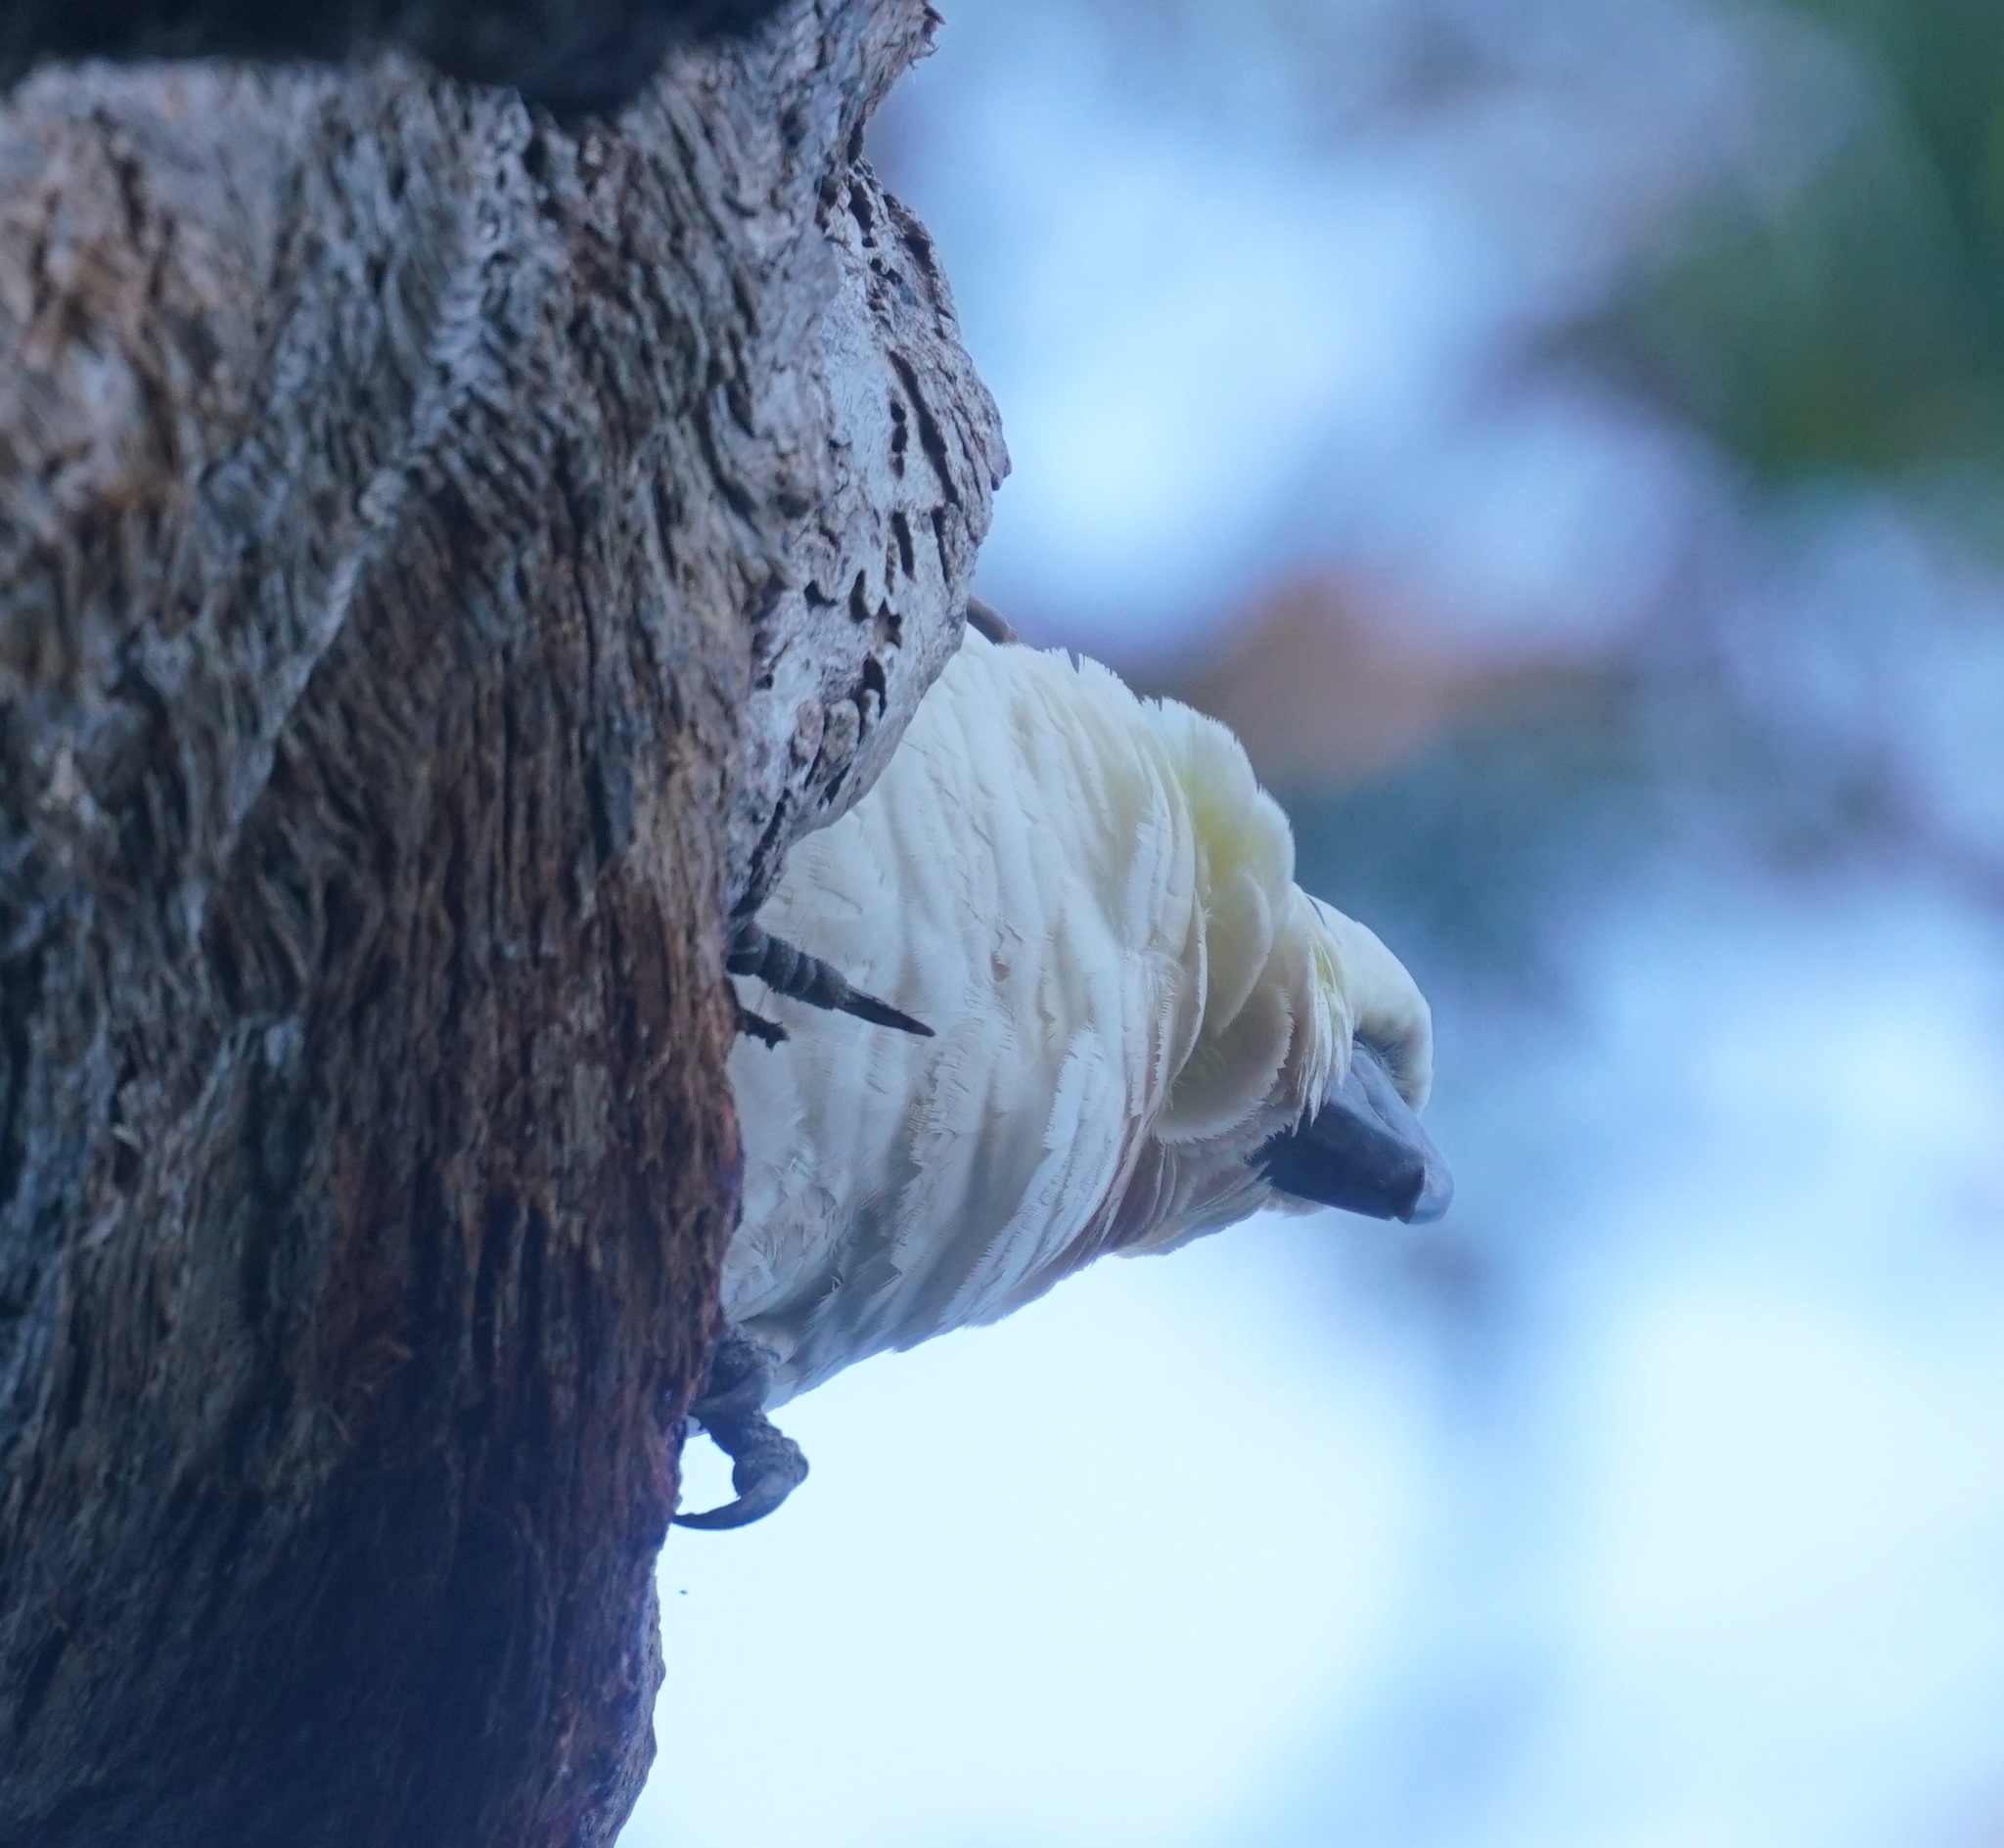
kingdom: Animalia
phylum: Chordata
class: Aves
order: Psittaciformes
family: Psittacidae
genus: Cacatua
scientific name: Cacatua galerita
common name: Sulphur-crested cockatoo
